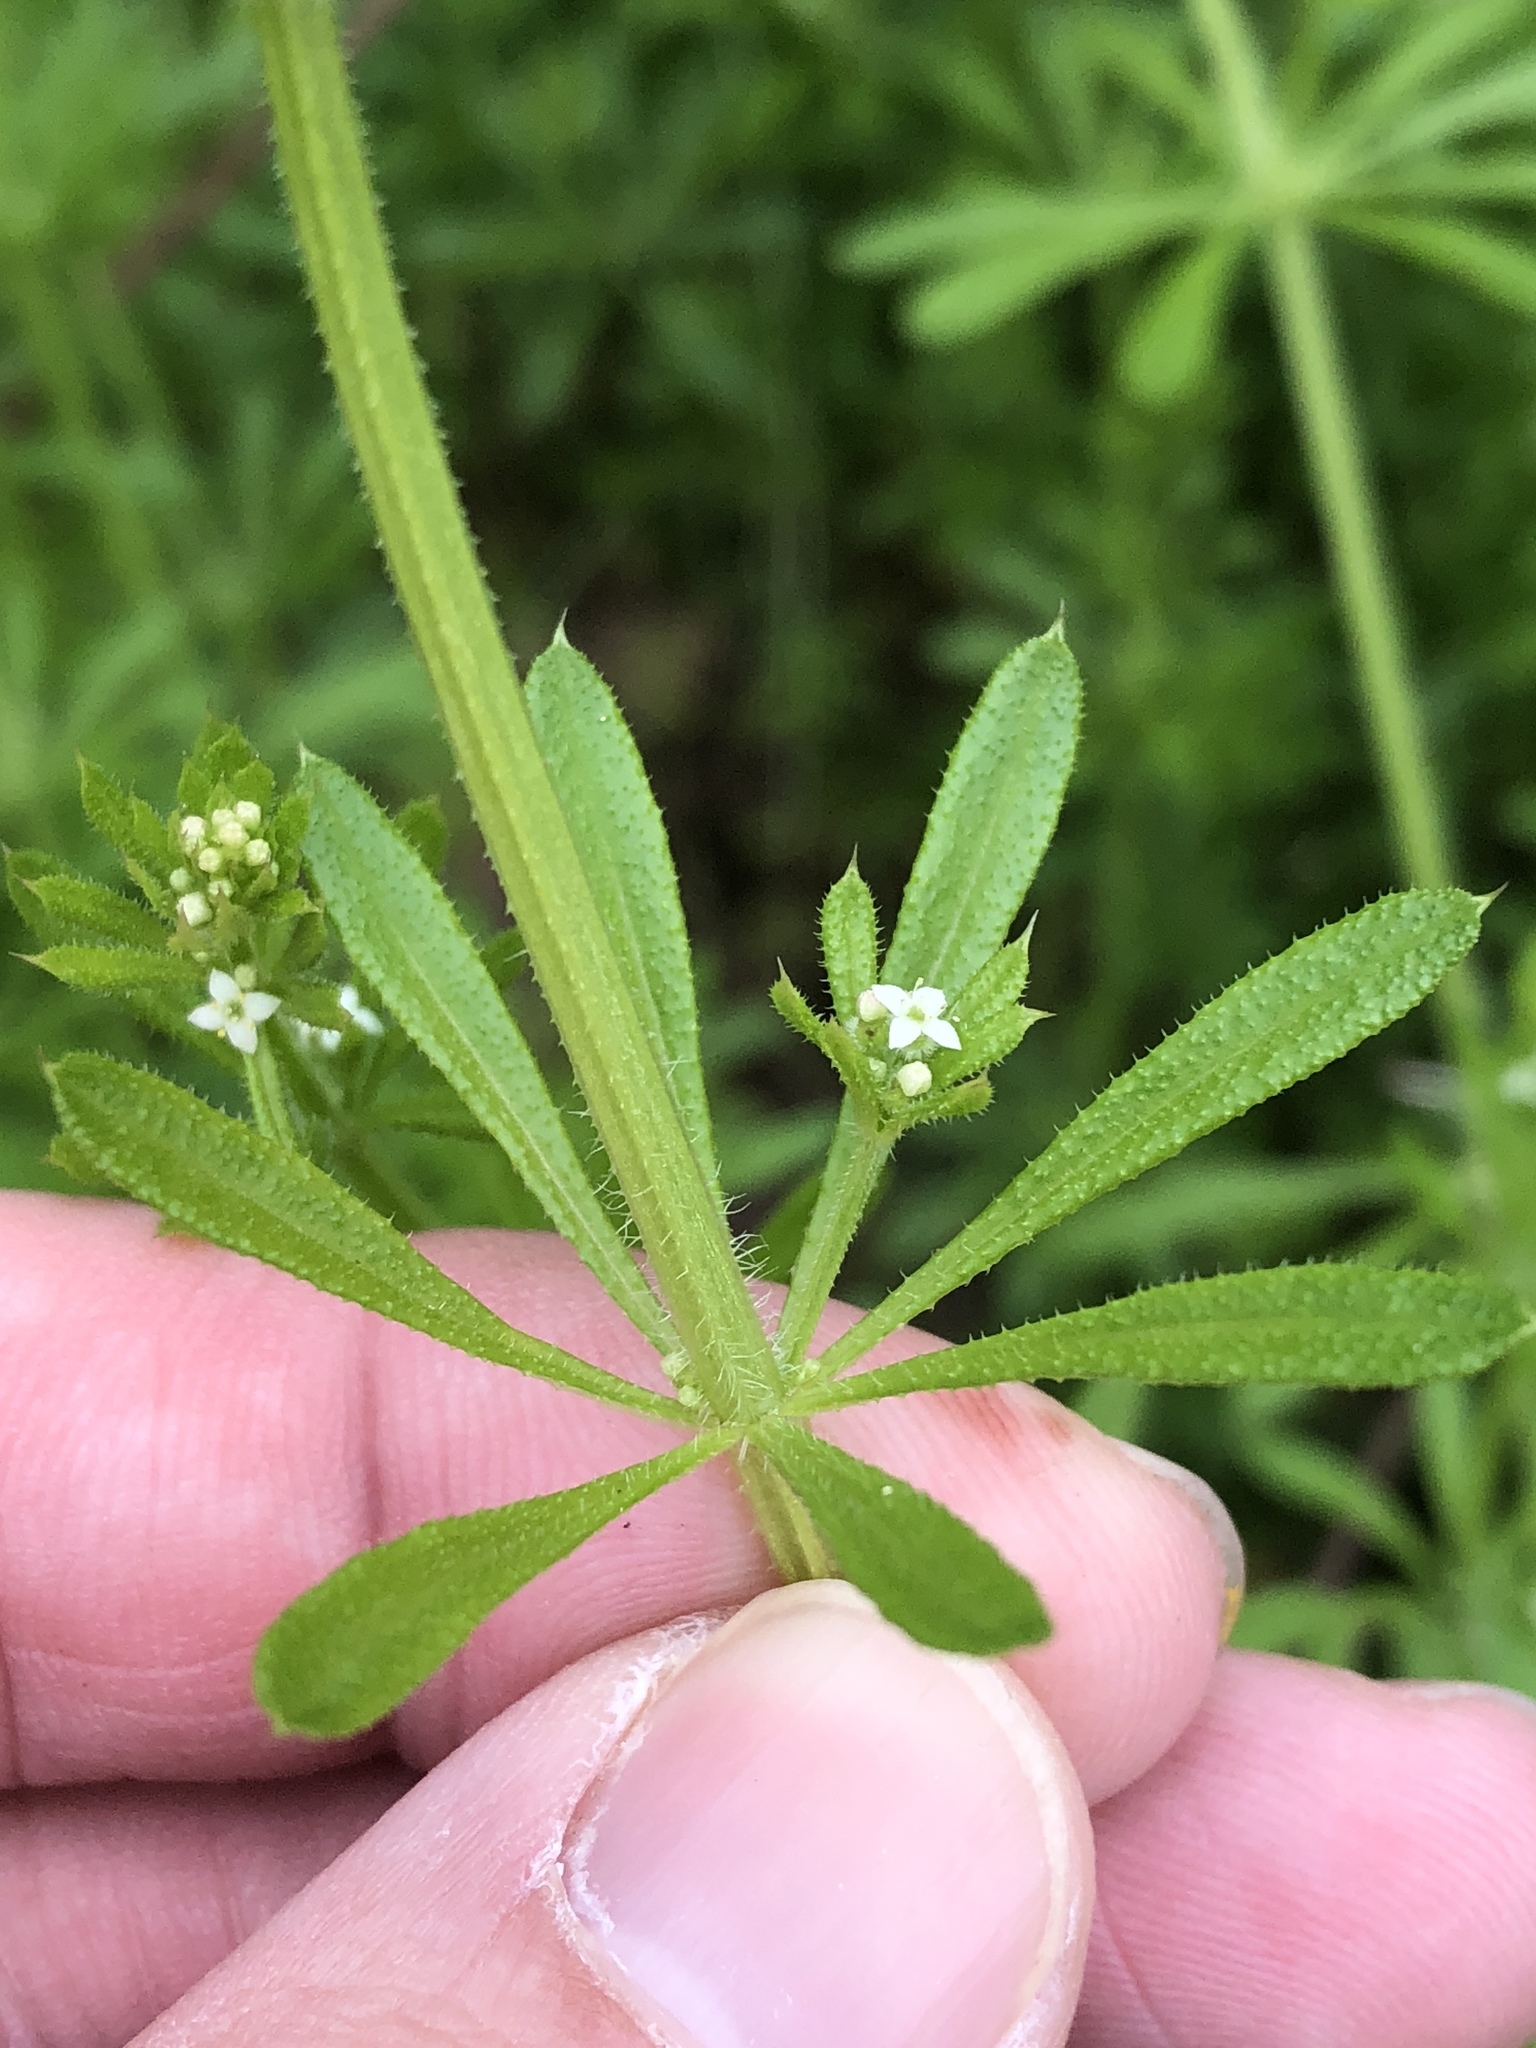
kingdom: Plantae
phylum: Tracheophyta
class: Magnoliopsida
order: Gentianales
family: Rubiaceae
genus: Galium
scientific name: Galium aparine
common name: Cleavers
